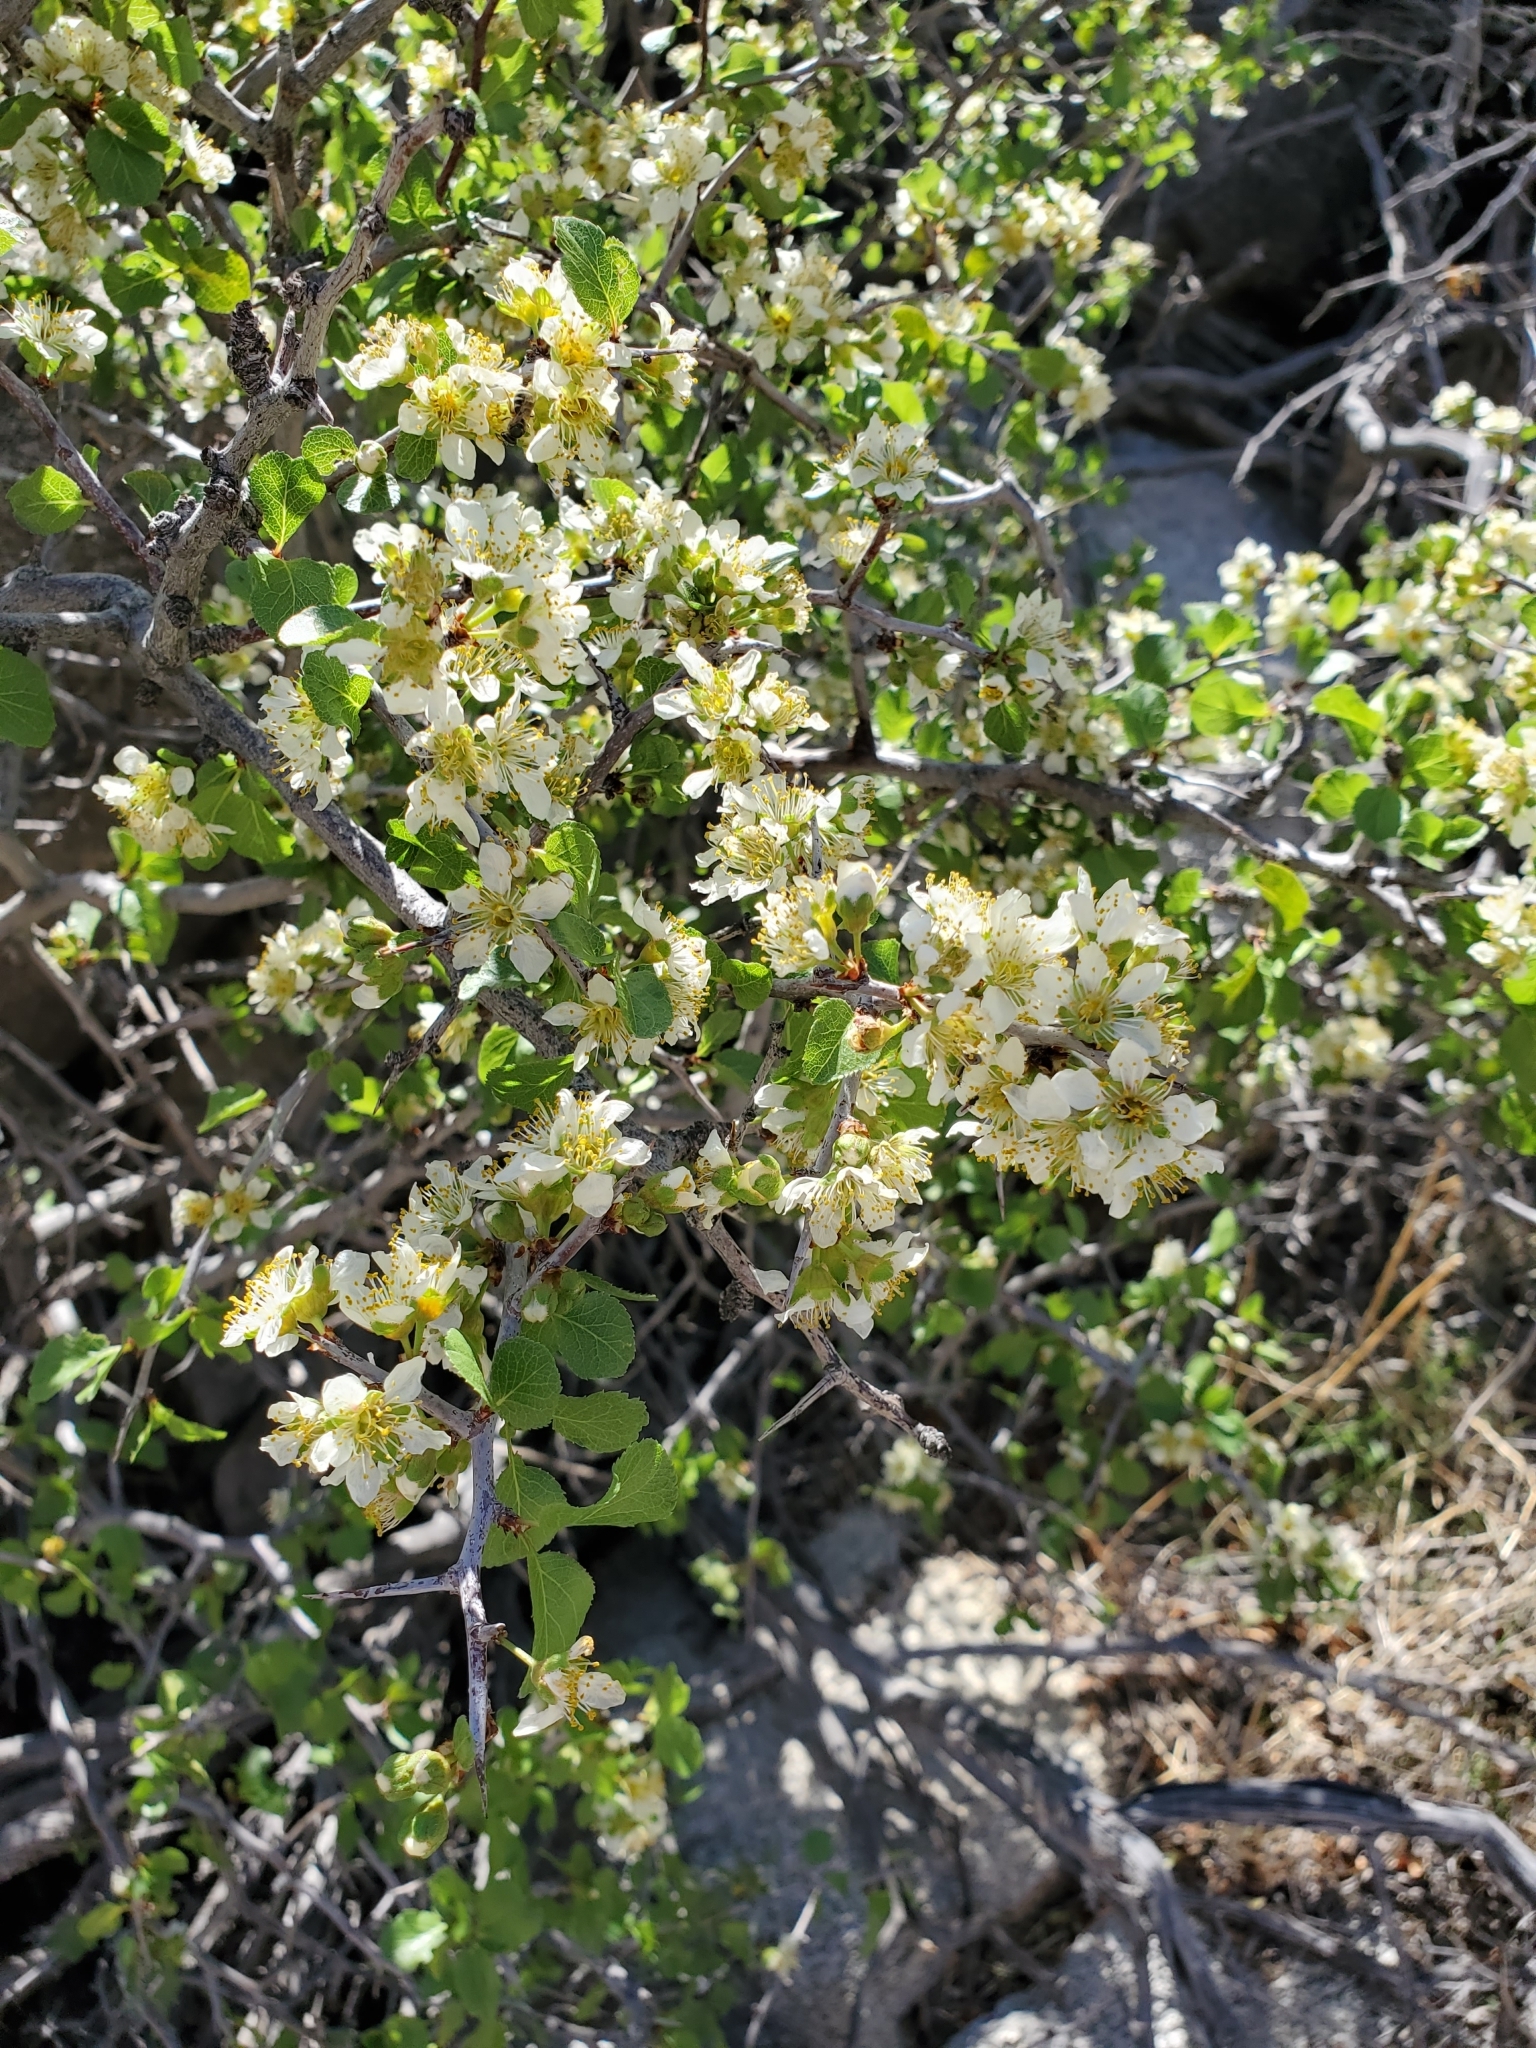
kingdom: Plantae
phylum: Tracheophyta
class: Magnoliopsida
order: Rosales
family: Rosaceae
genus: Prunus
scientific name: Prunus fremontii
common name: Desert apricot
